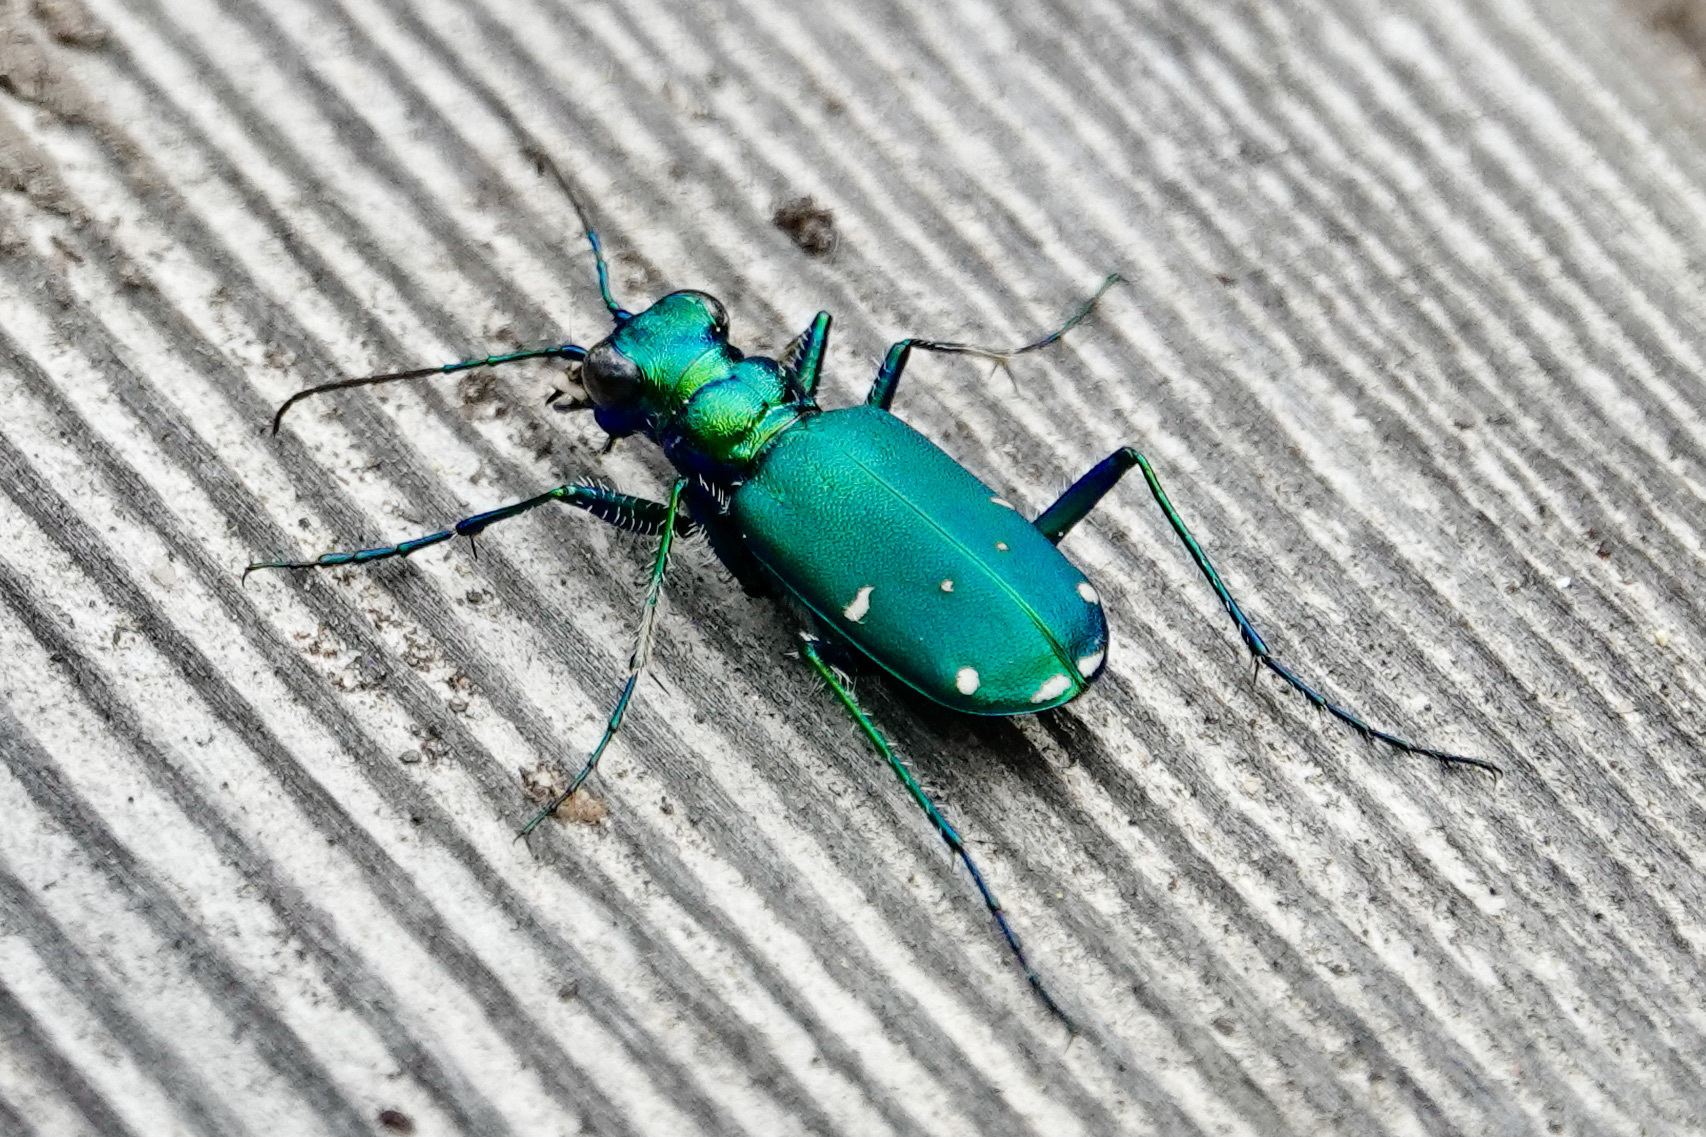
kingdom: Animalia
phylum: Arthropoda
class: Insecta
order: Coleoptera
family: Carabidae
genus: Cicindela
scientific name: Cicindela sexguttata
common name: Six-spotted tiger beetle
